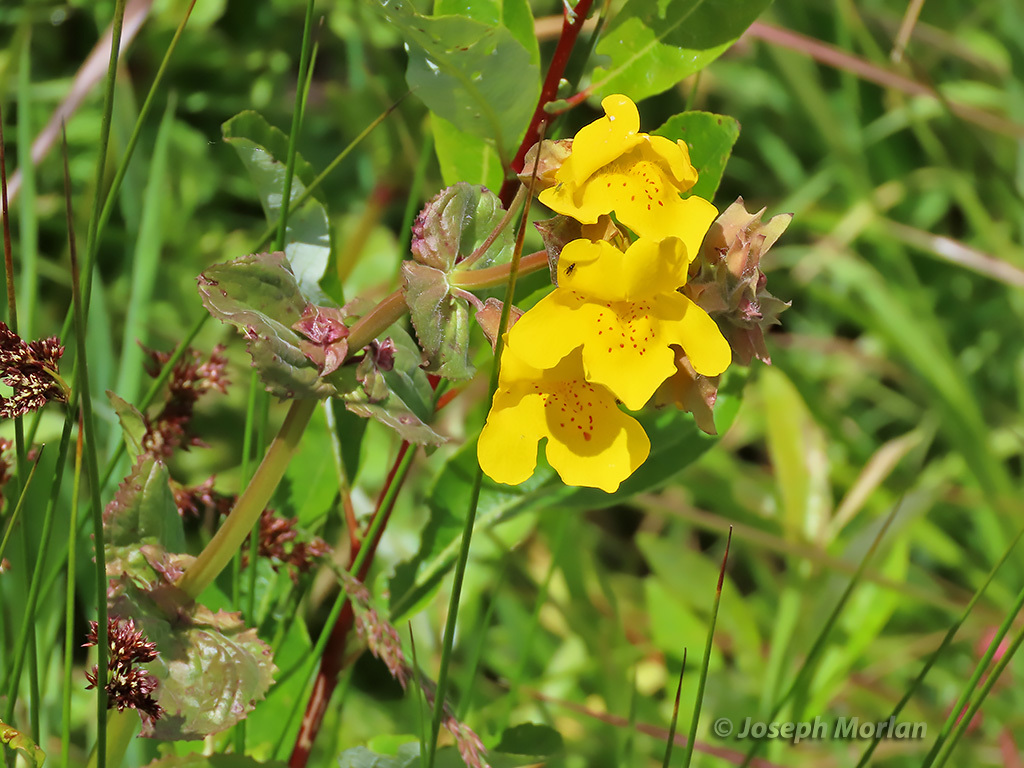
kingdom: Plantae
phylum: Tracheophyta
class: Magnoliopsida
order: Lamiales
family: Phrymaceae
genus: Erythranthe
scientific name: Erythranthe guttata
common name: Monkeyflower
